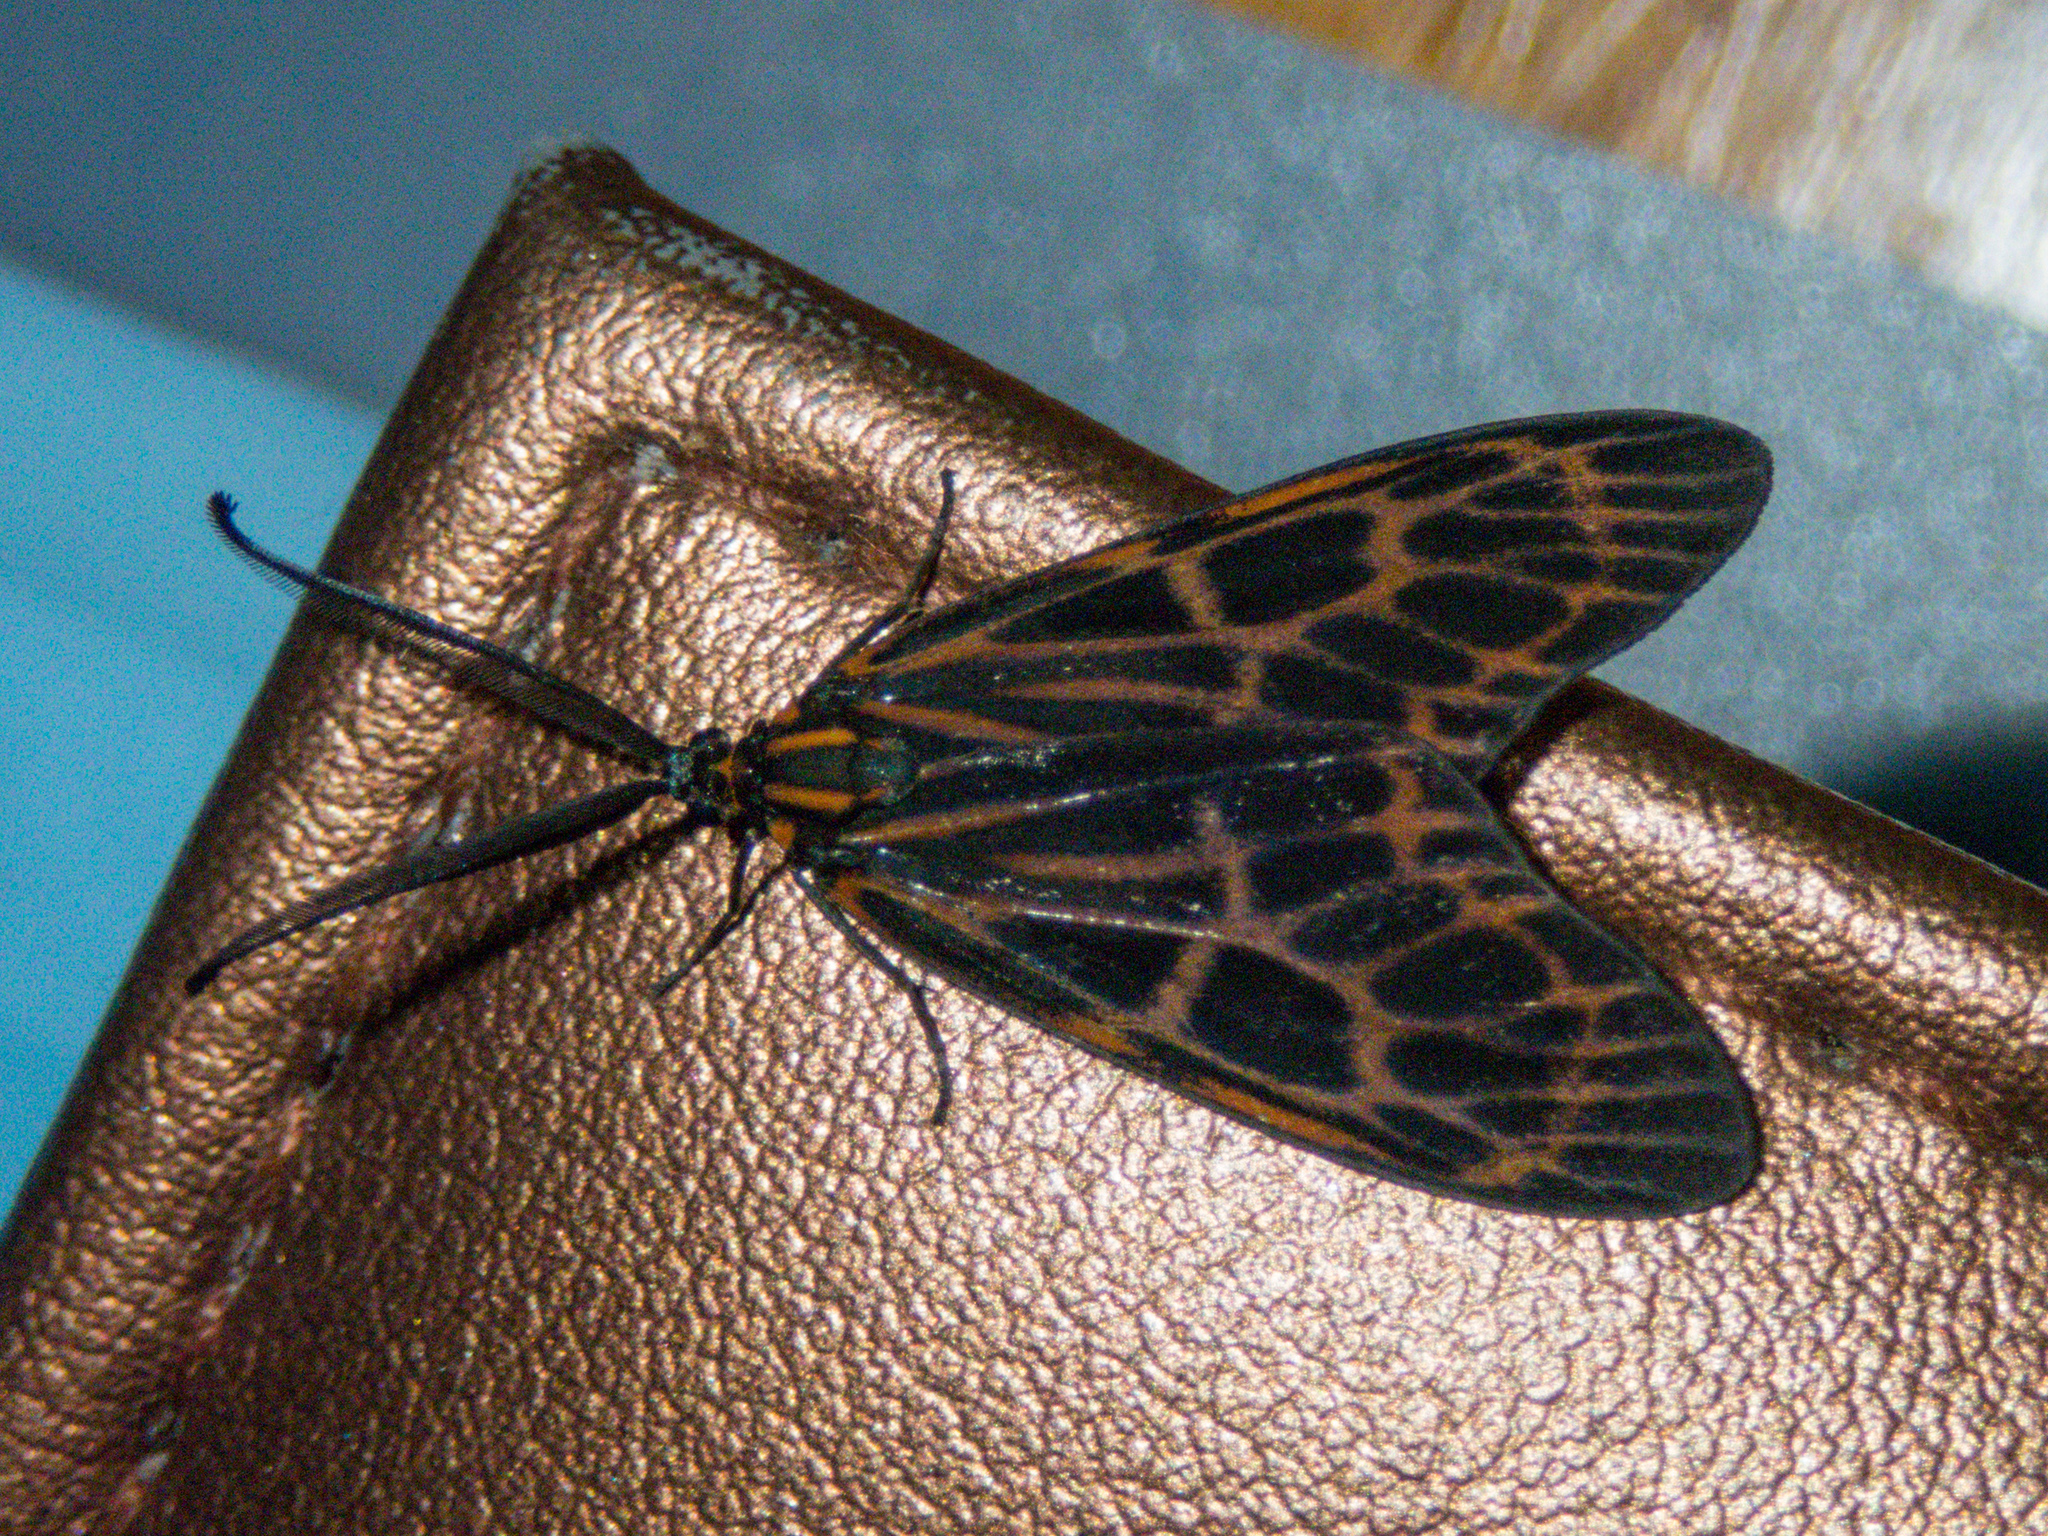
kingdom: Animalia
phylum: Arthropoda
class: Insecta
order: Lepidoptera
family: Zygaenidae
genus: Prosopandrophila
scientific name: Prosopandrophila distincta
